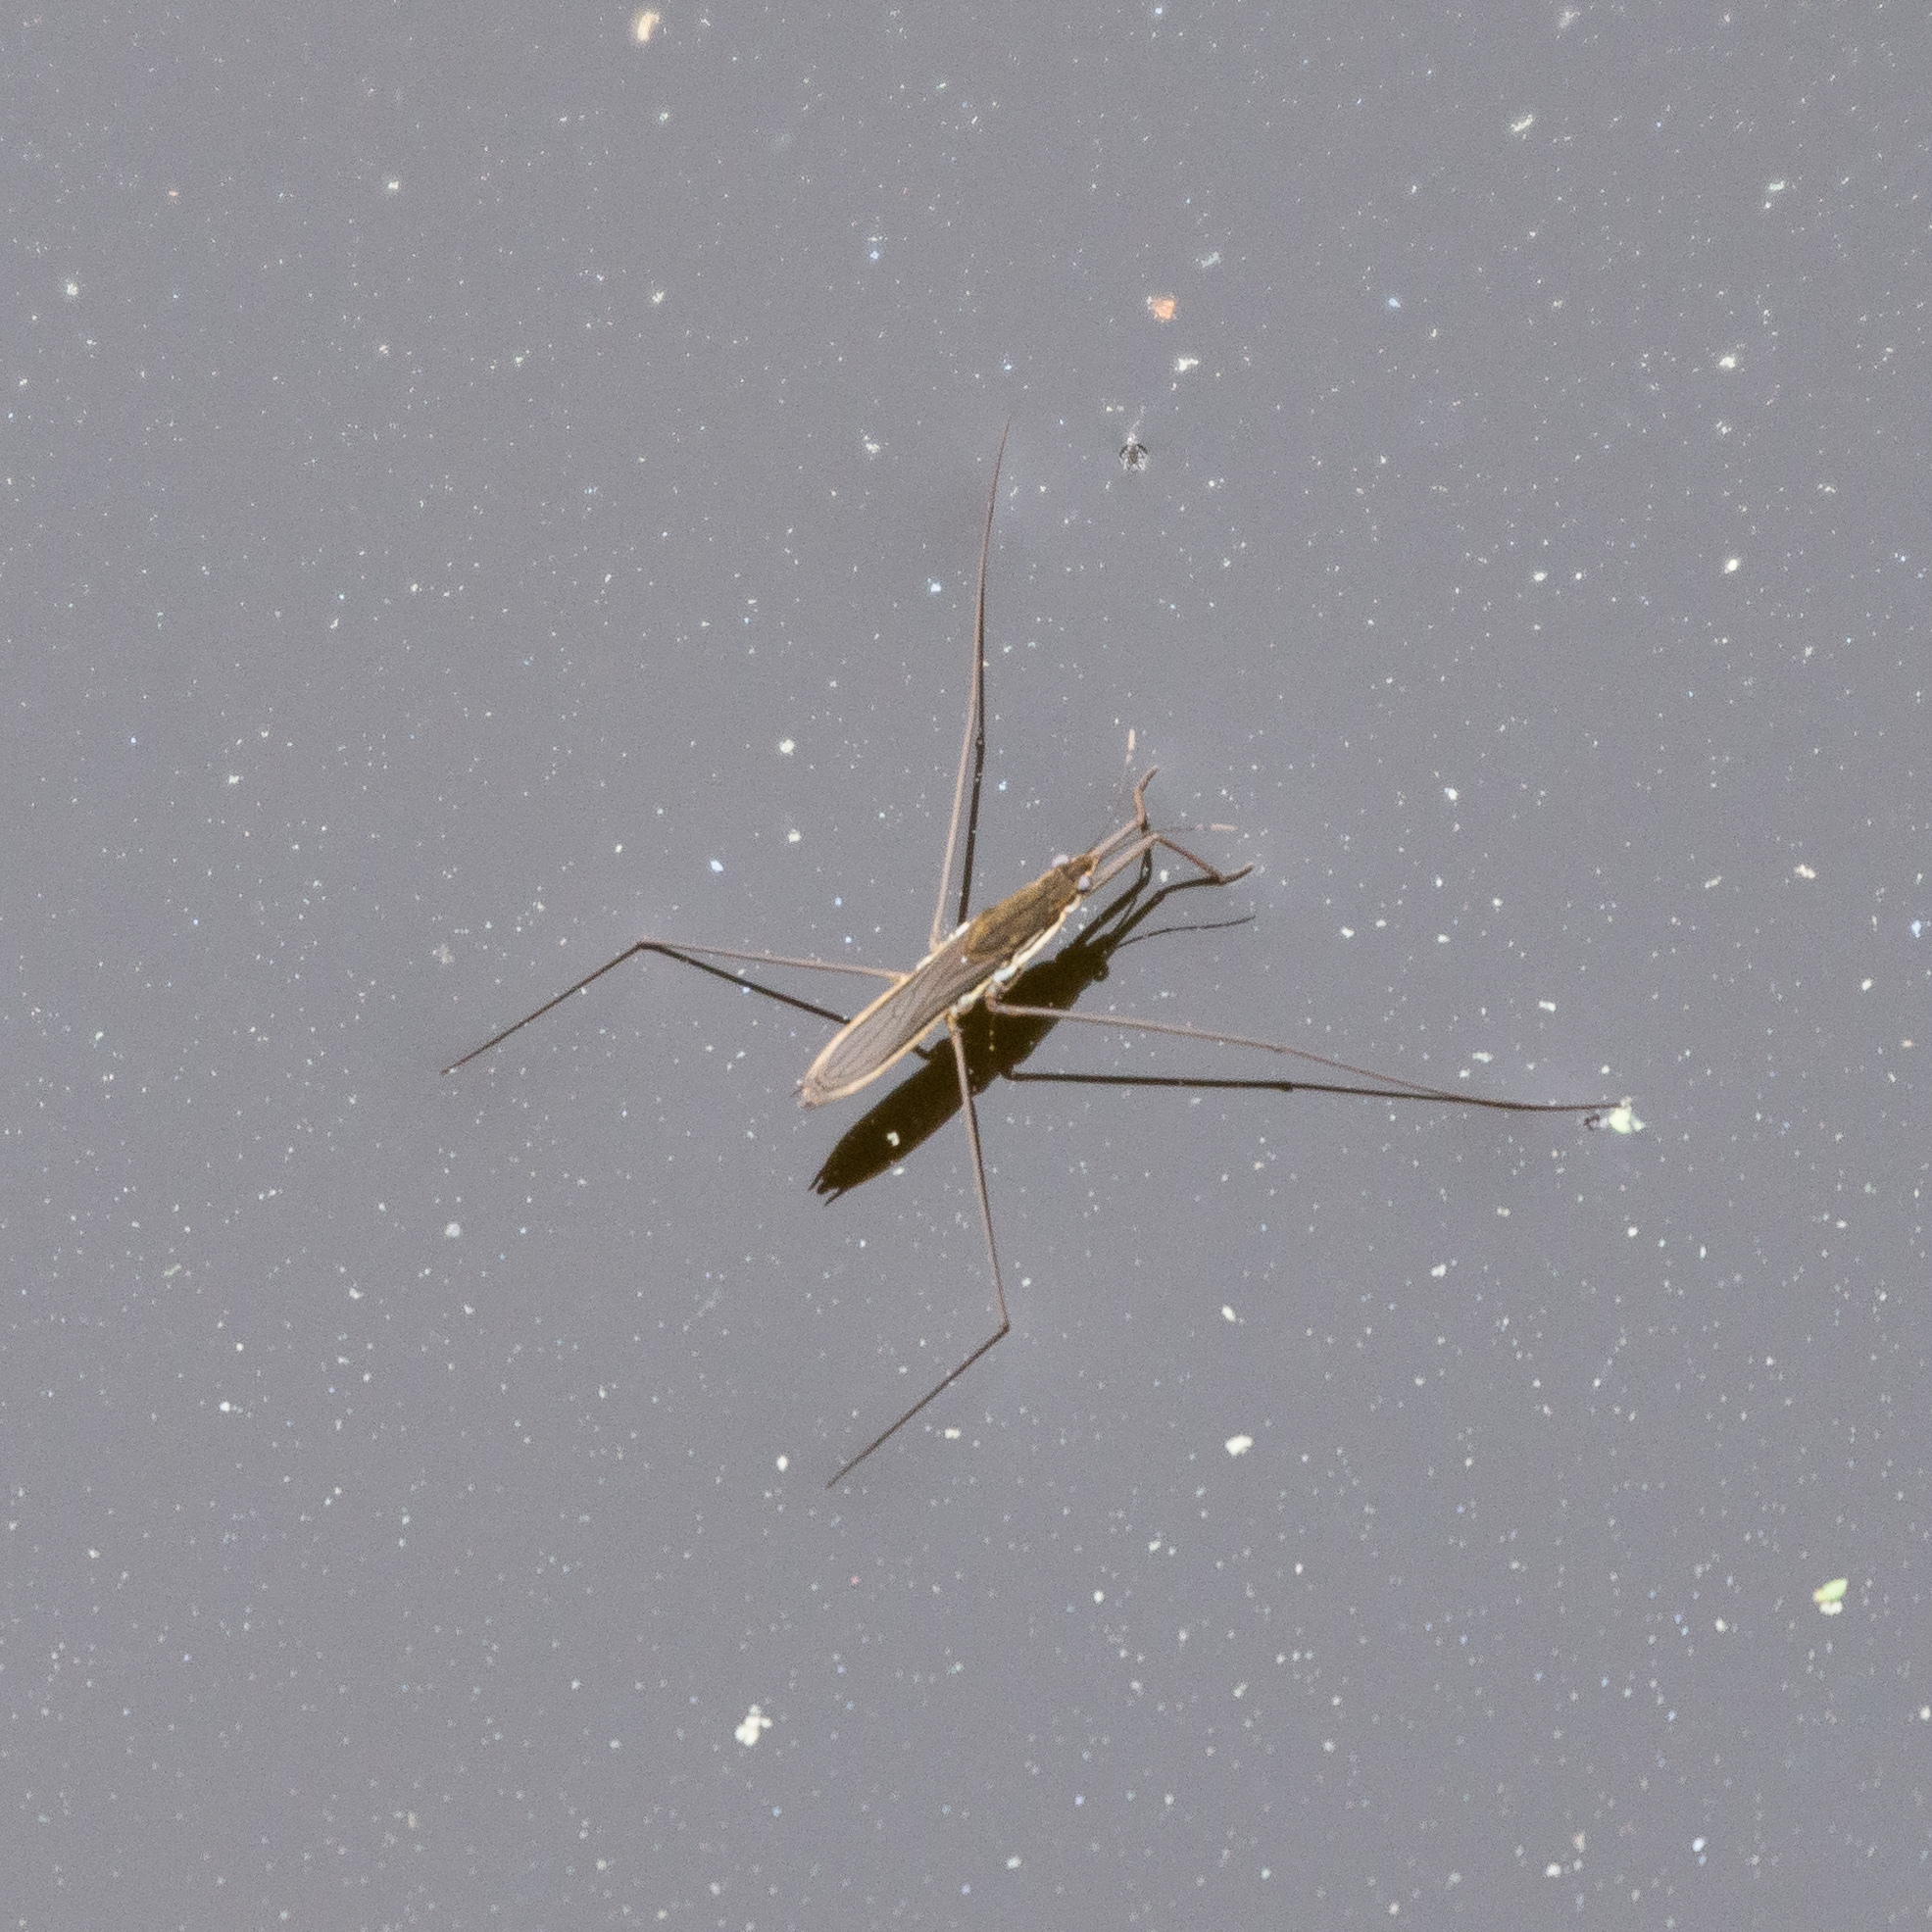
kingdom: Animalia
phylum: Arthropoda
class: Insecta
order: Hemiptera
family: Gerridae
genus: Aquarius
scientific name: Aquarius paludum
